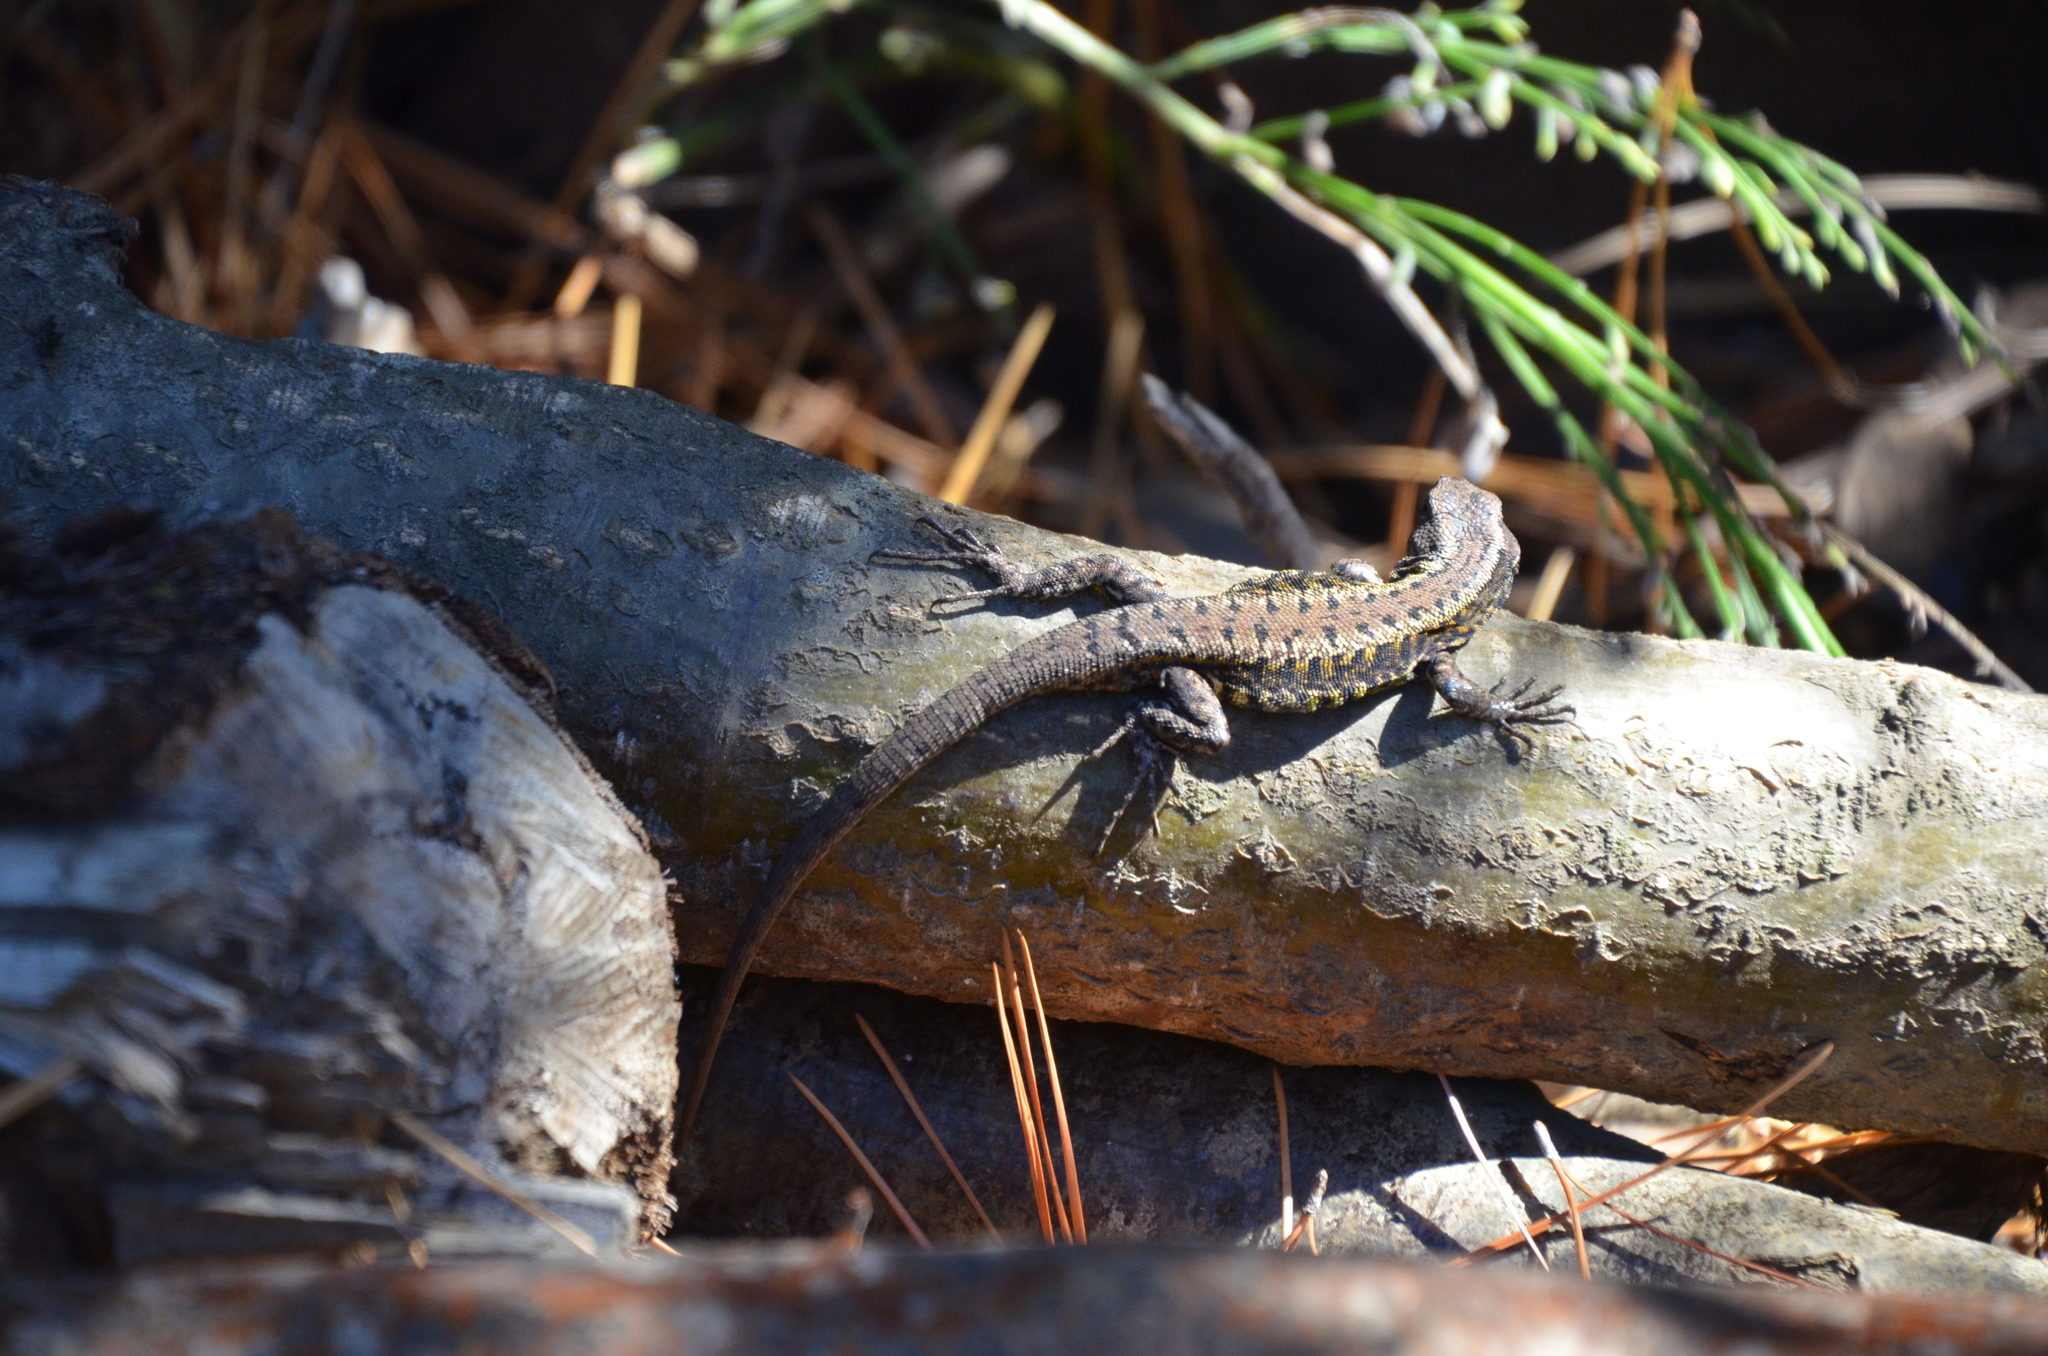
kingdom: Animalia
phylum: Chordata
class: Squamata
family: Liolaemidae
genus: Liolaemus
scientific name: Liolaemus pictus
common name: Painted tree iguana
